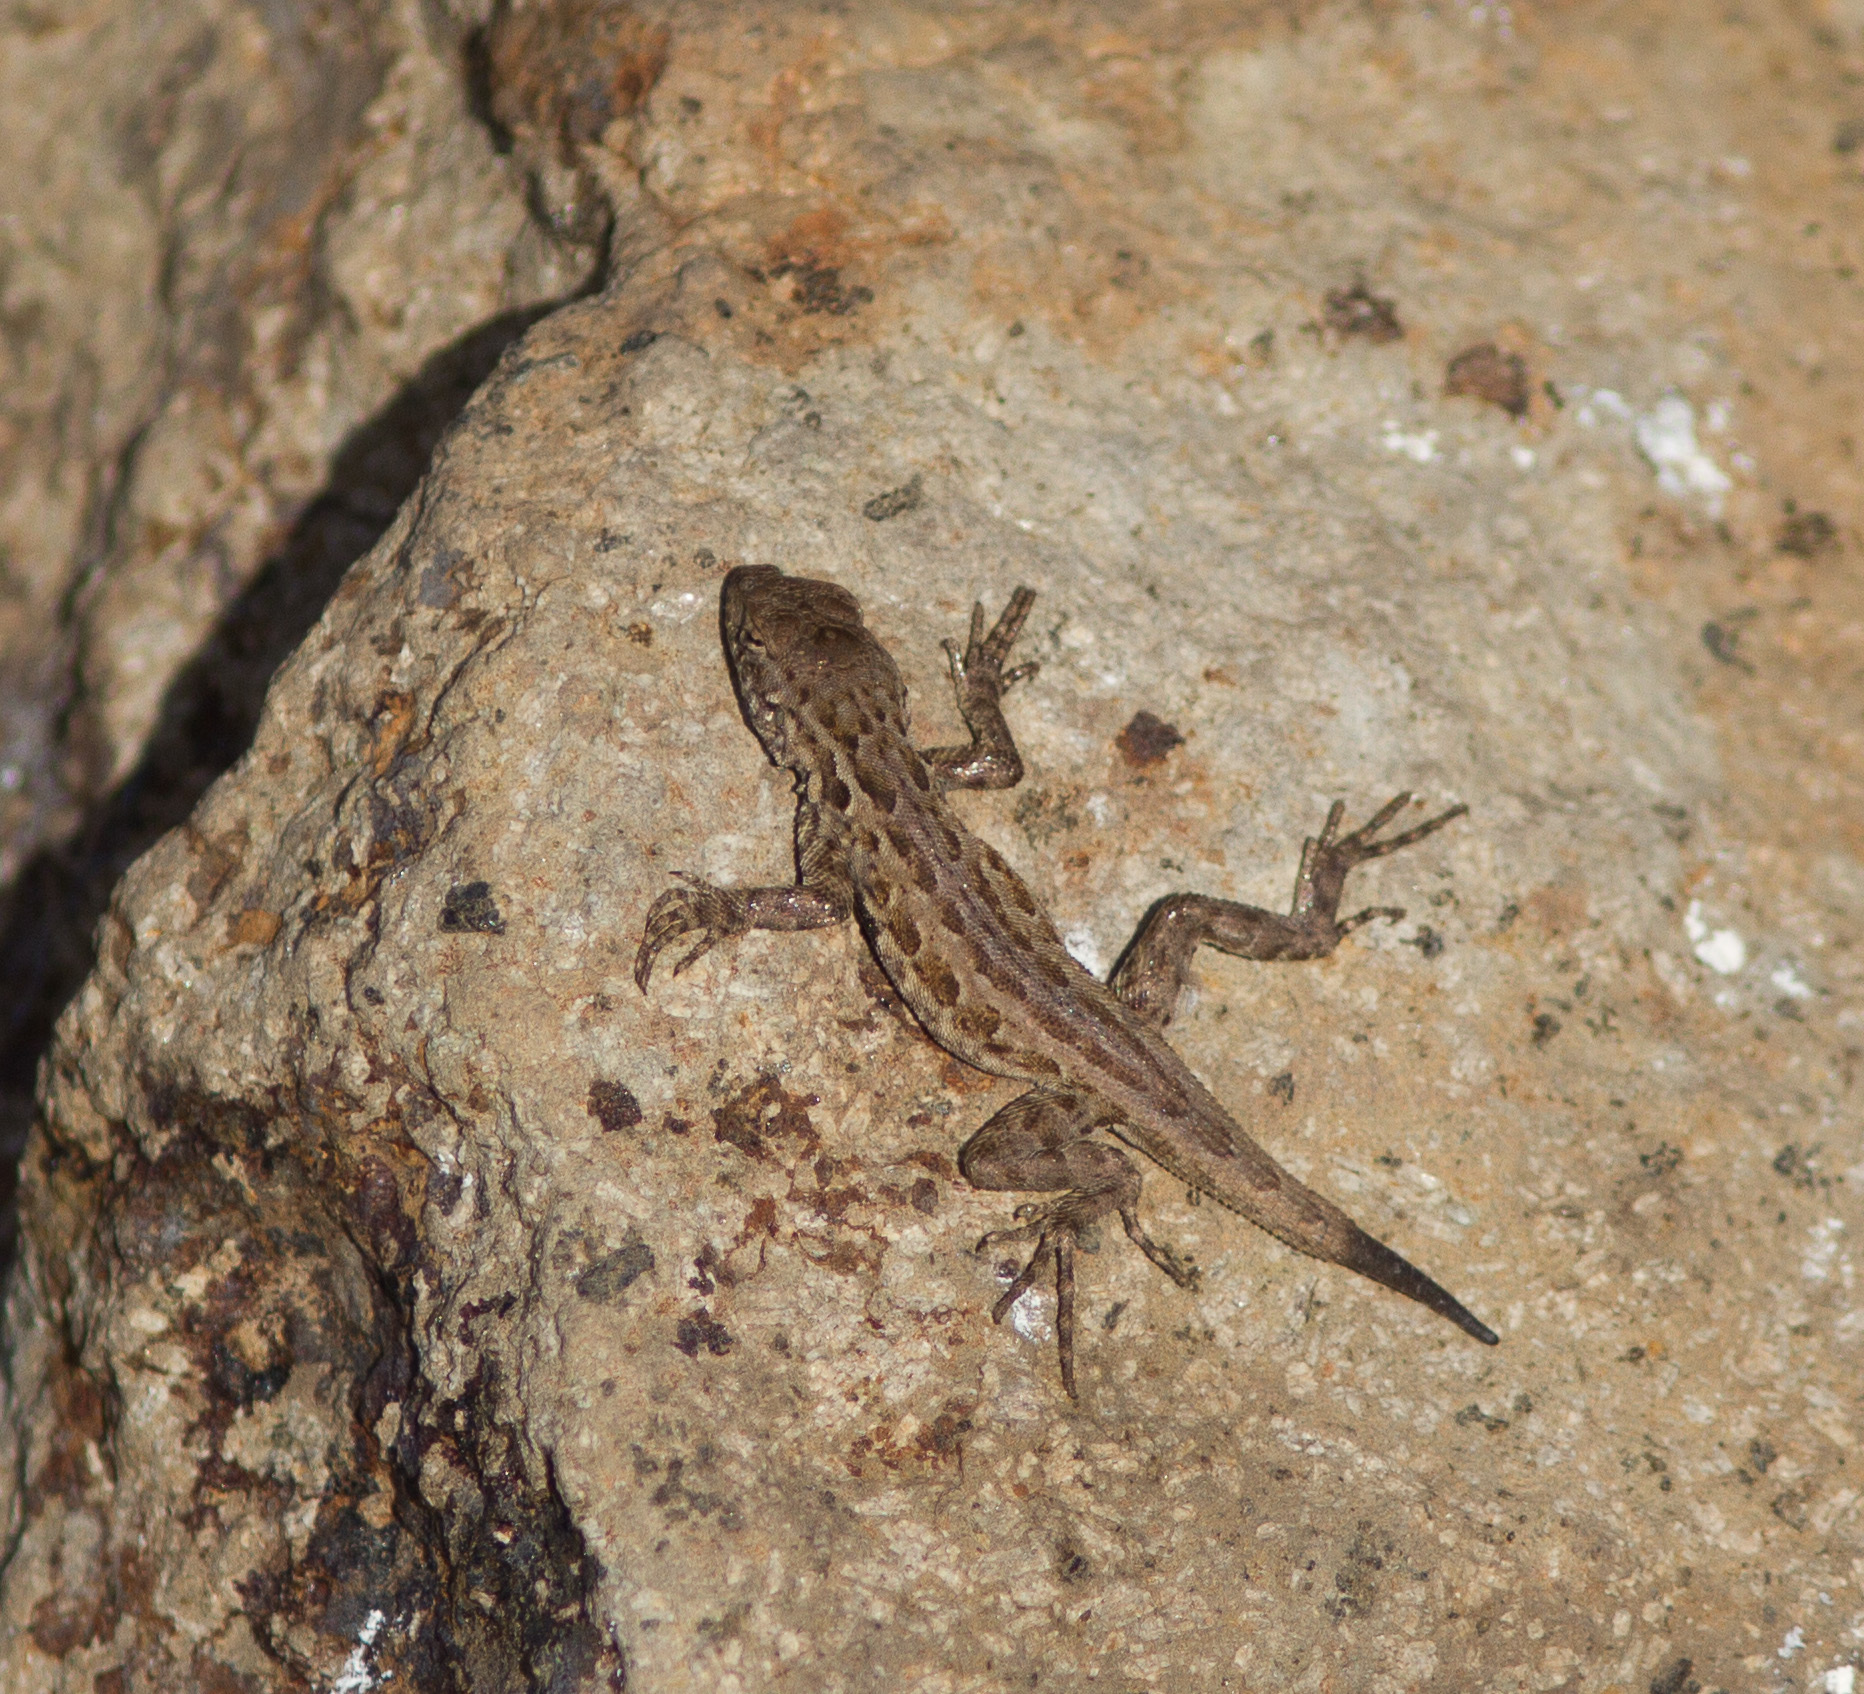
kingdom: Animalia
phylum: Chordata
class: Squamata
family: Phrynosomatidae
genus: Uta
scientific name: Uta stansburiana
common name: Side-blotched lizard
